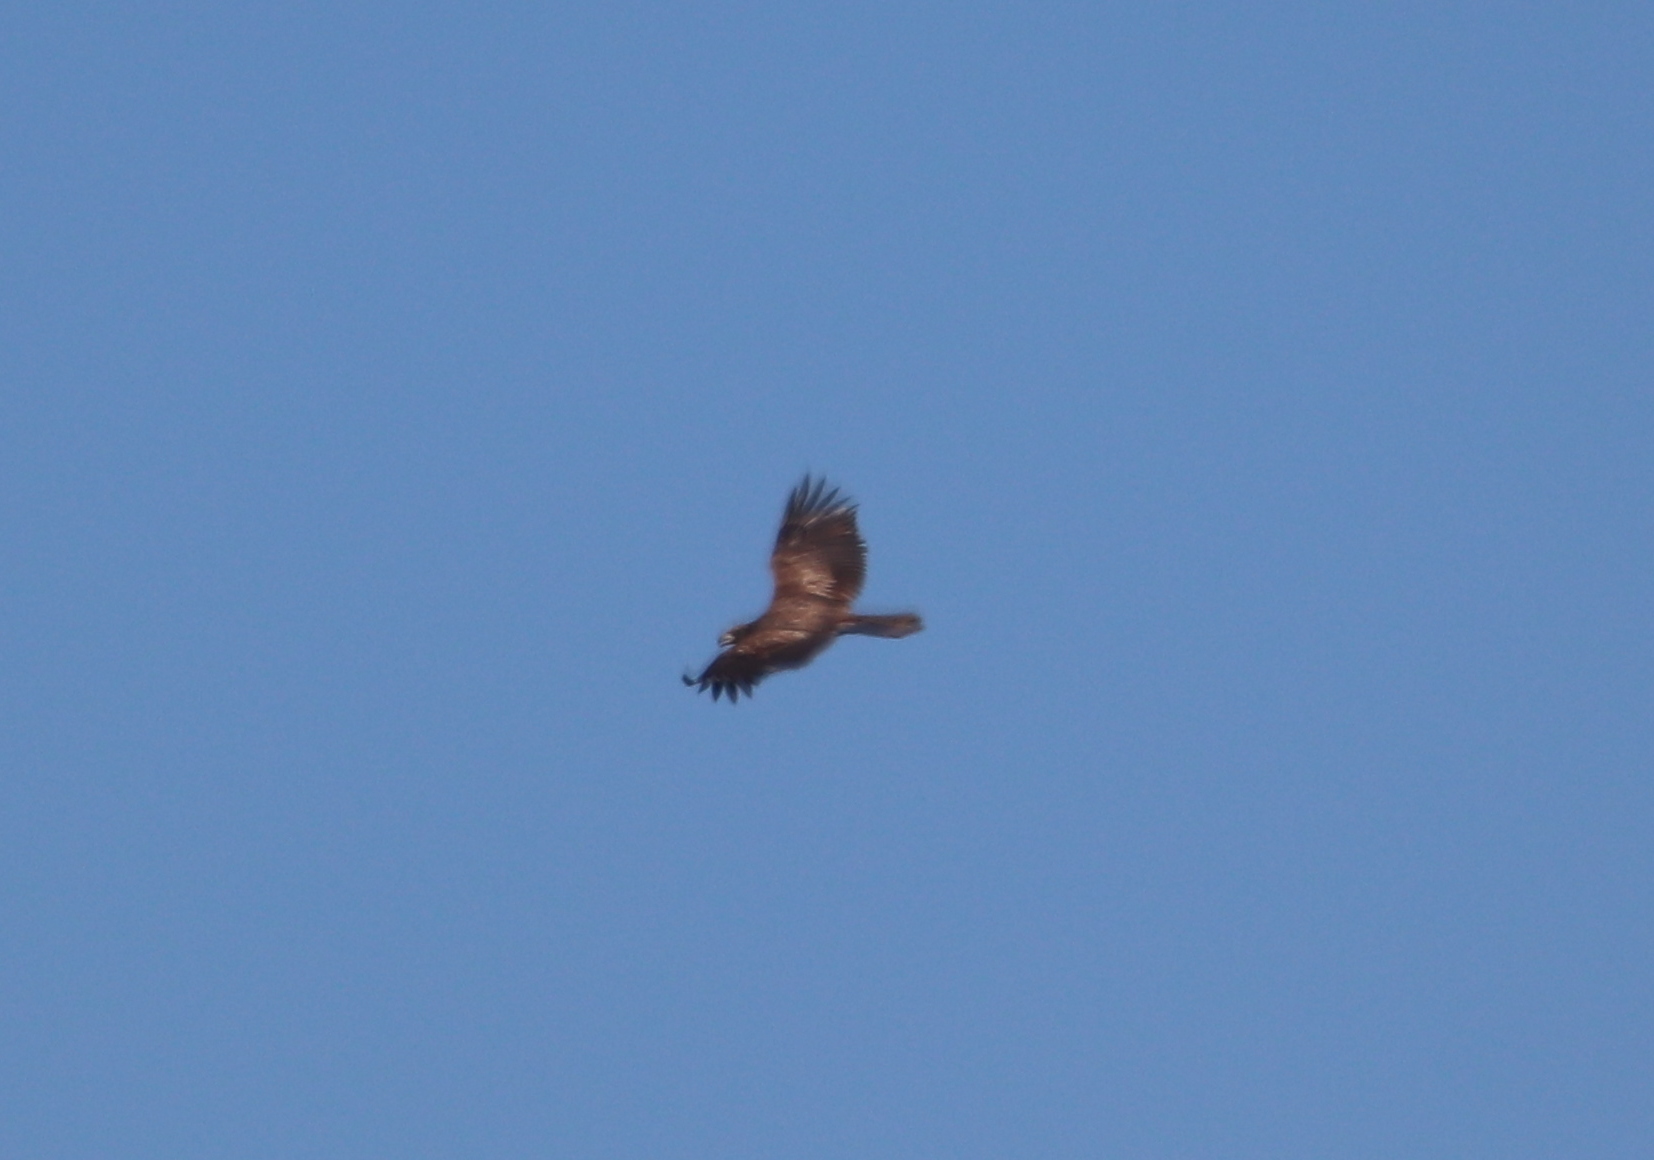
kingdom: Animalia
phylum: Chordata
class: Aves
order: Accipitriformes
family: Accipitridae
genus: Haliaeetus
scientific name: Haliaeetus leucocephalus
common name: Bald eagle
